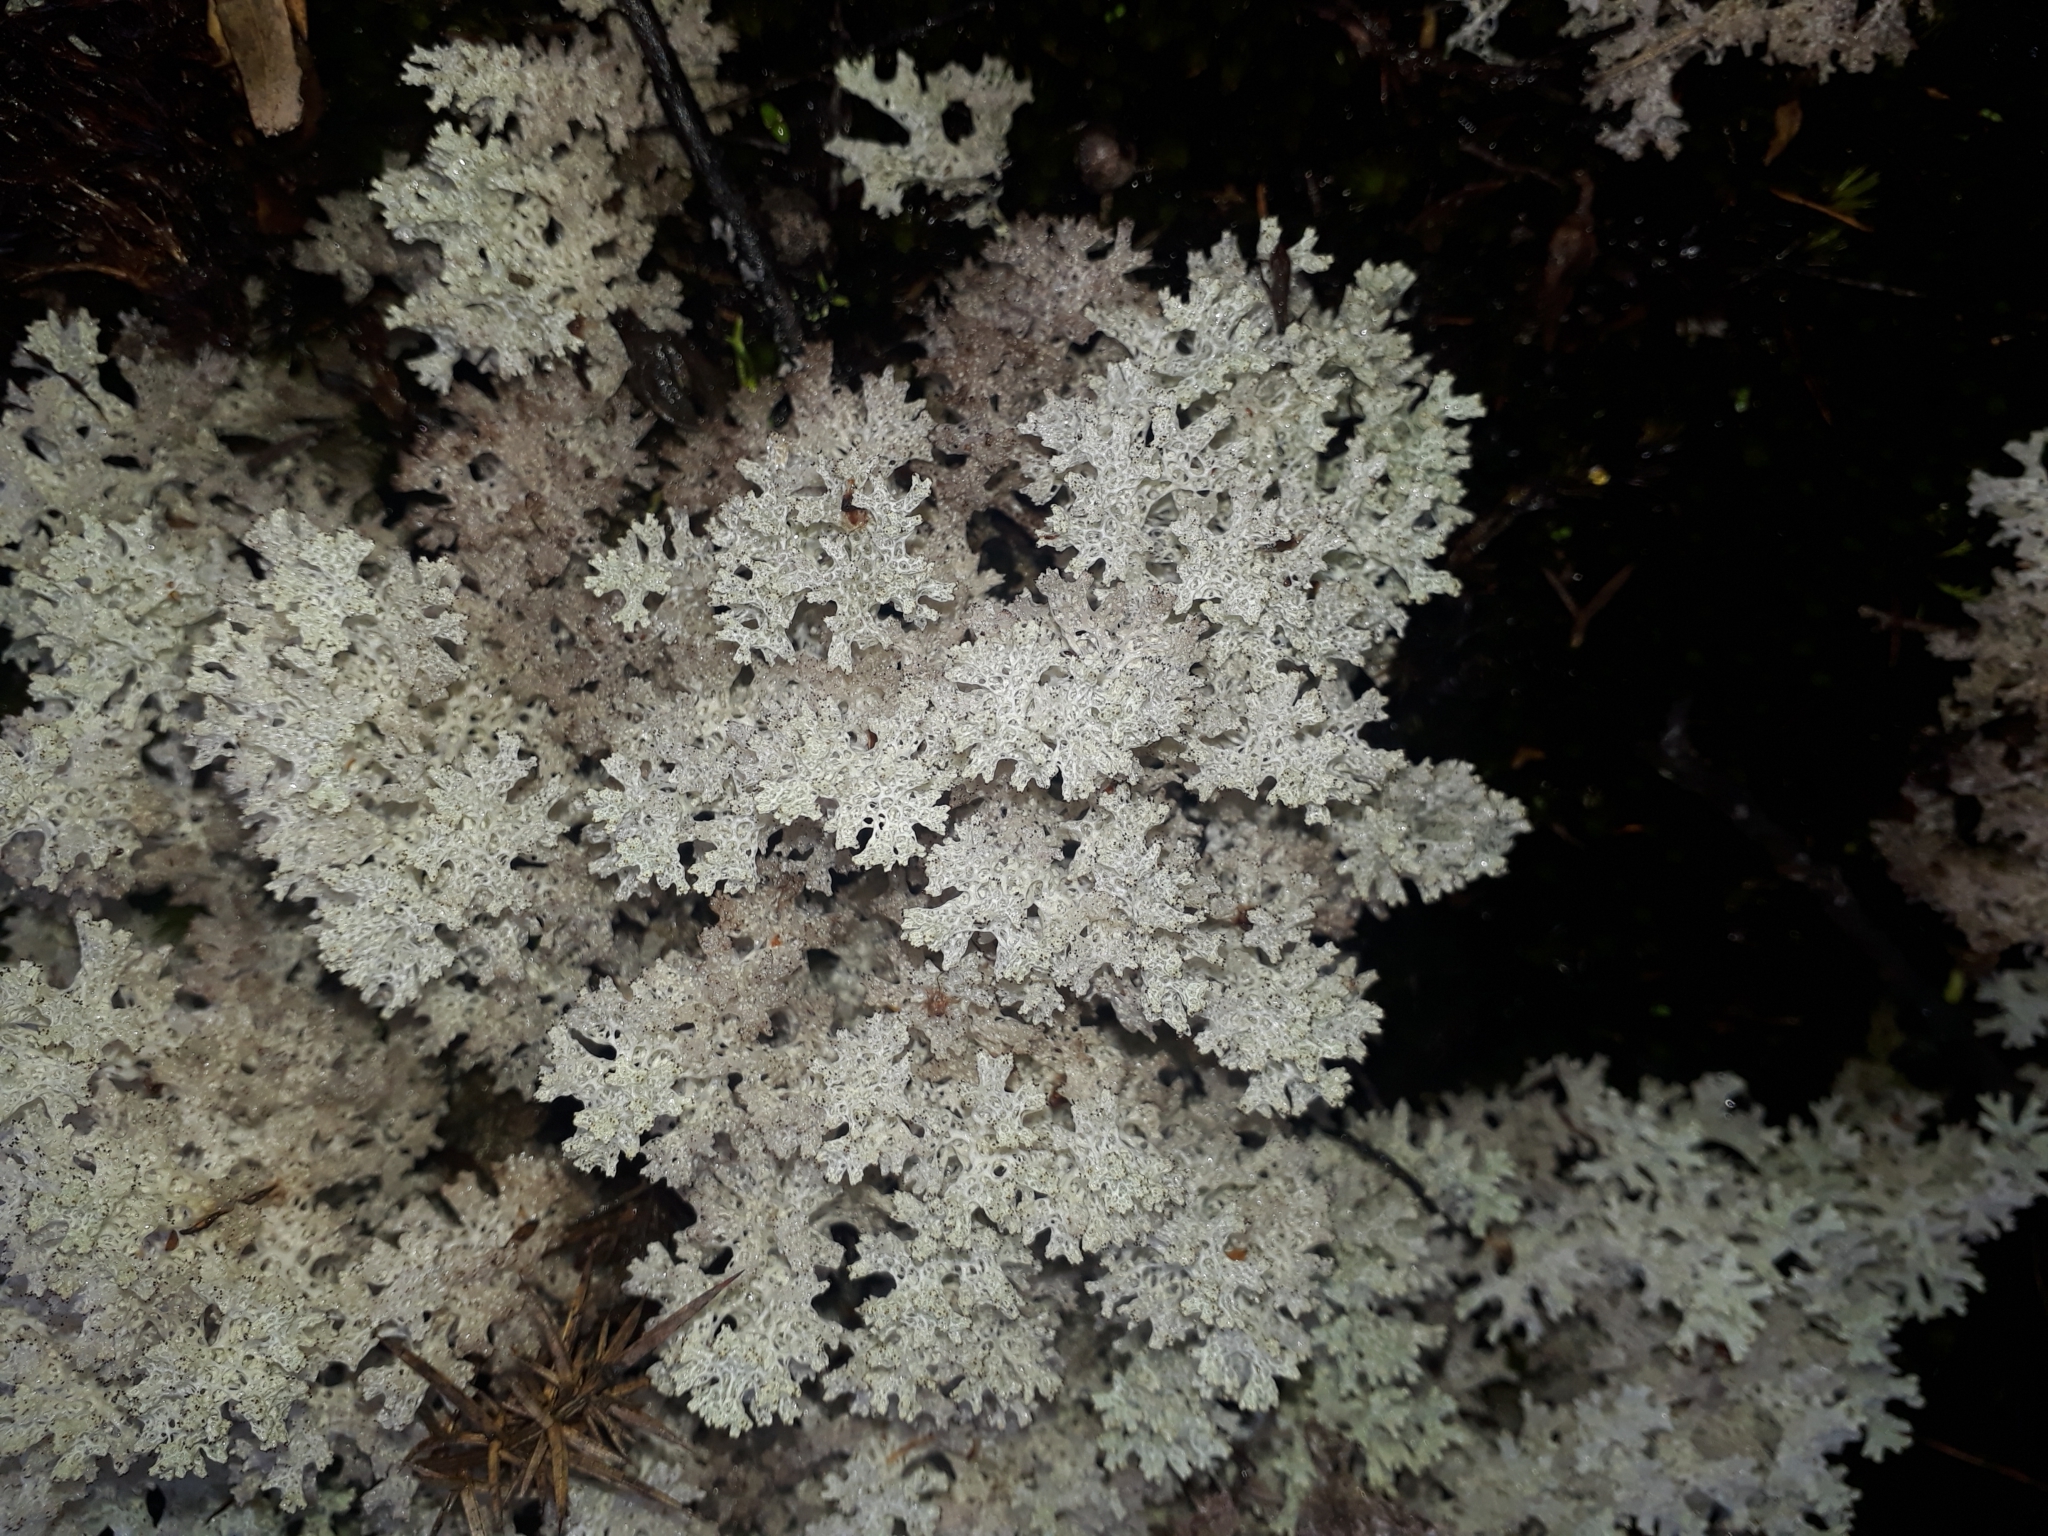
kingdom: Fungi
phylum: Ascomycota
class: Lecanoromycetes
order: Lecanorales
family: Cladoniaceae
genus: Pulchrocladia
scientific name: Pulchrocladia retipora
